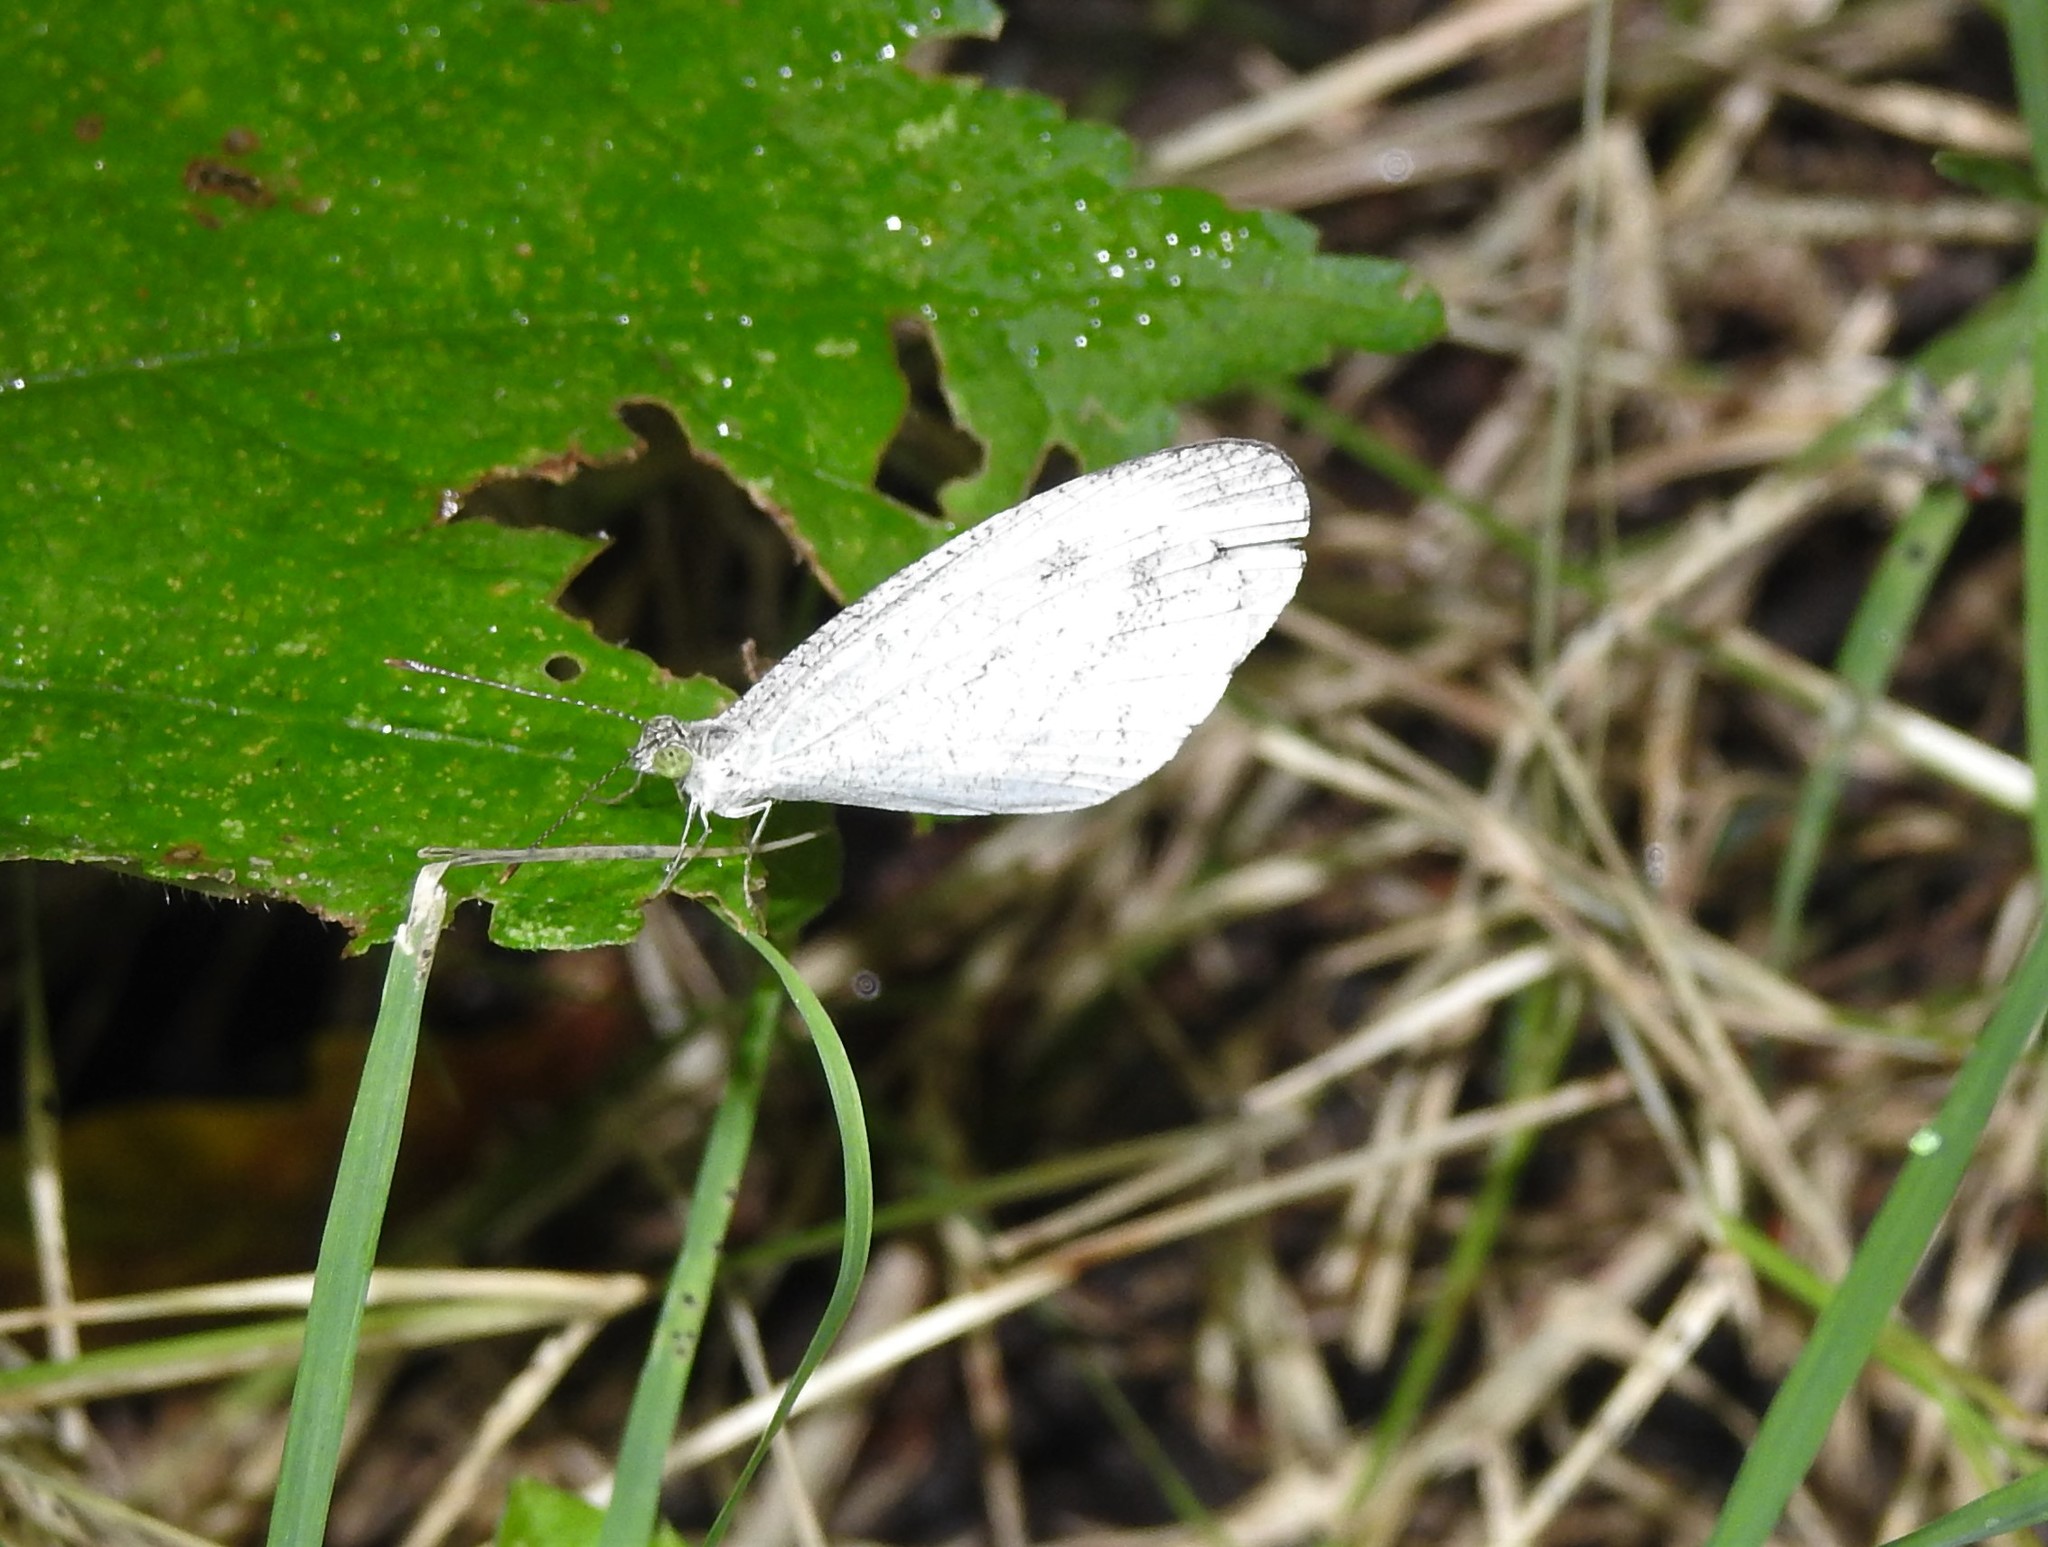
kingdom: Animalia
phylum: Arthropoda
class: Insecta
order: Lepidoptera
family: Pieridae
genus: Leptosia
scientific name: Leptosia nina
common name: Psyche
